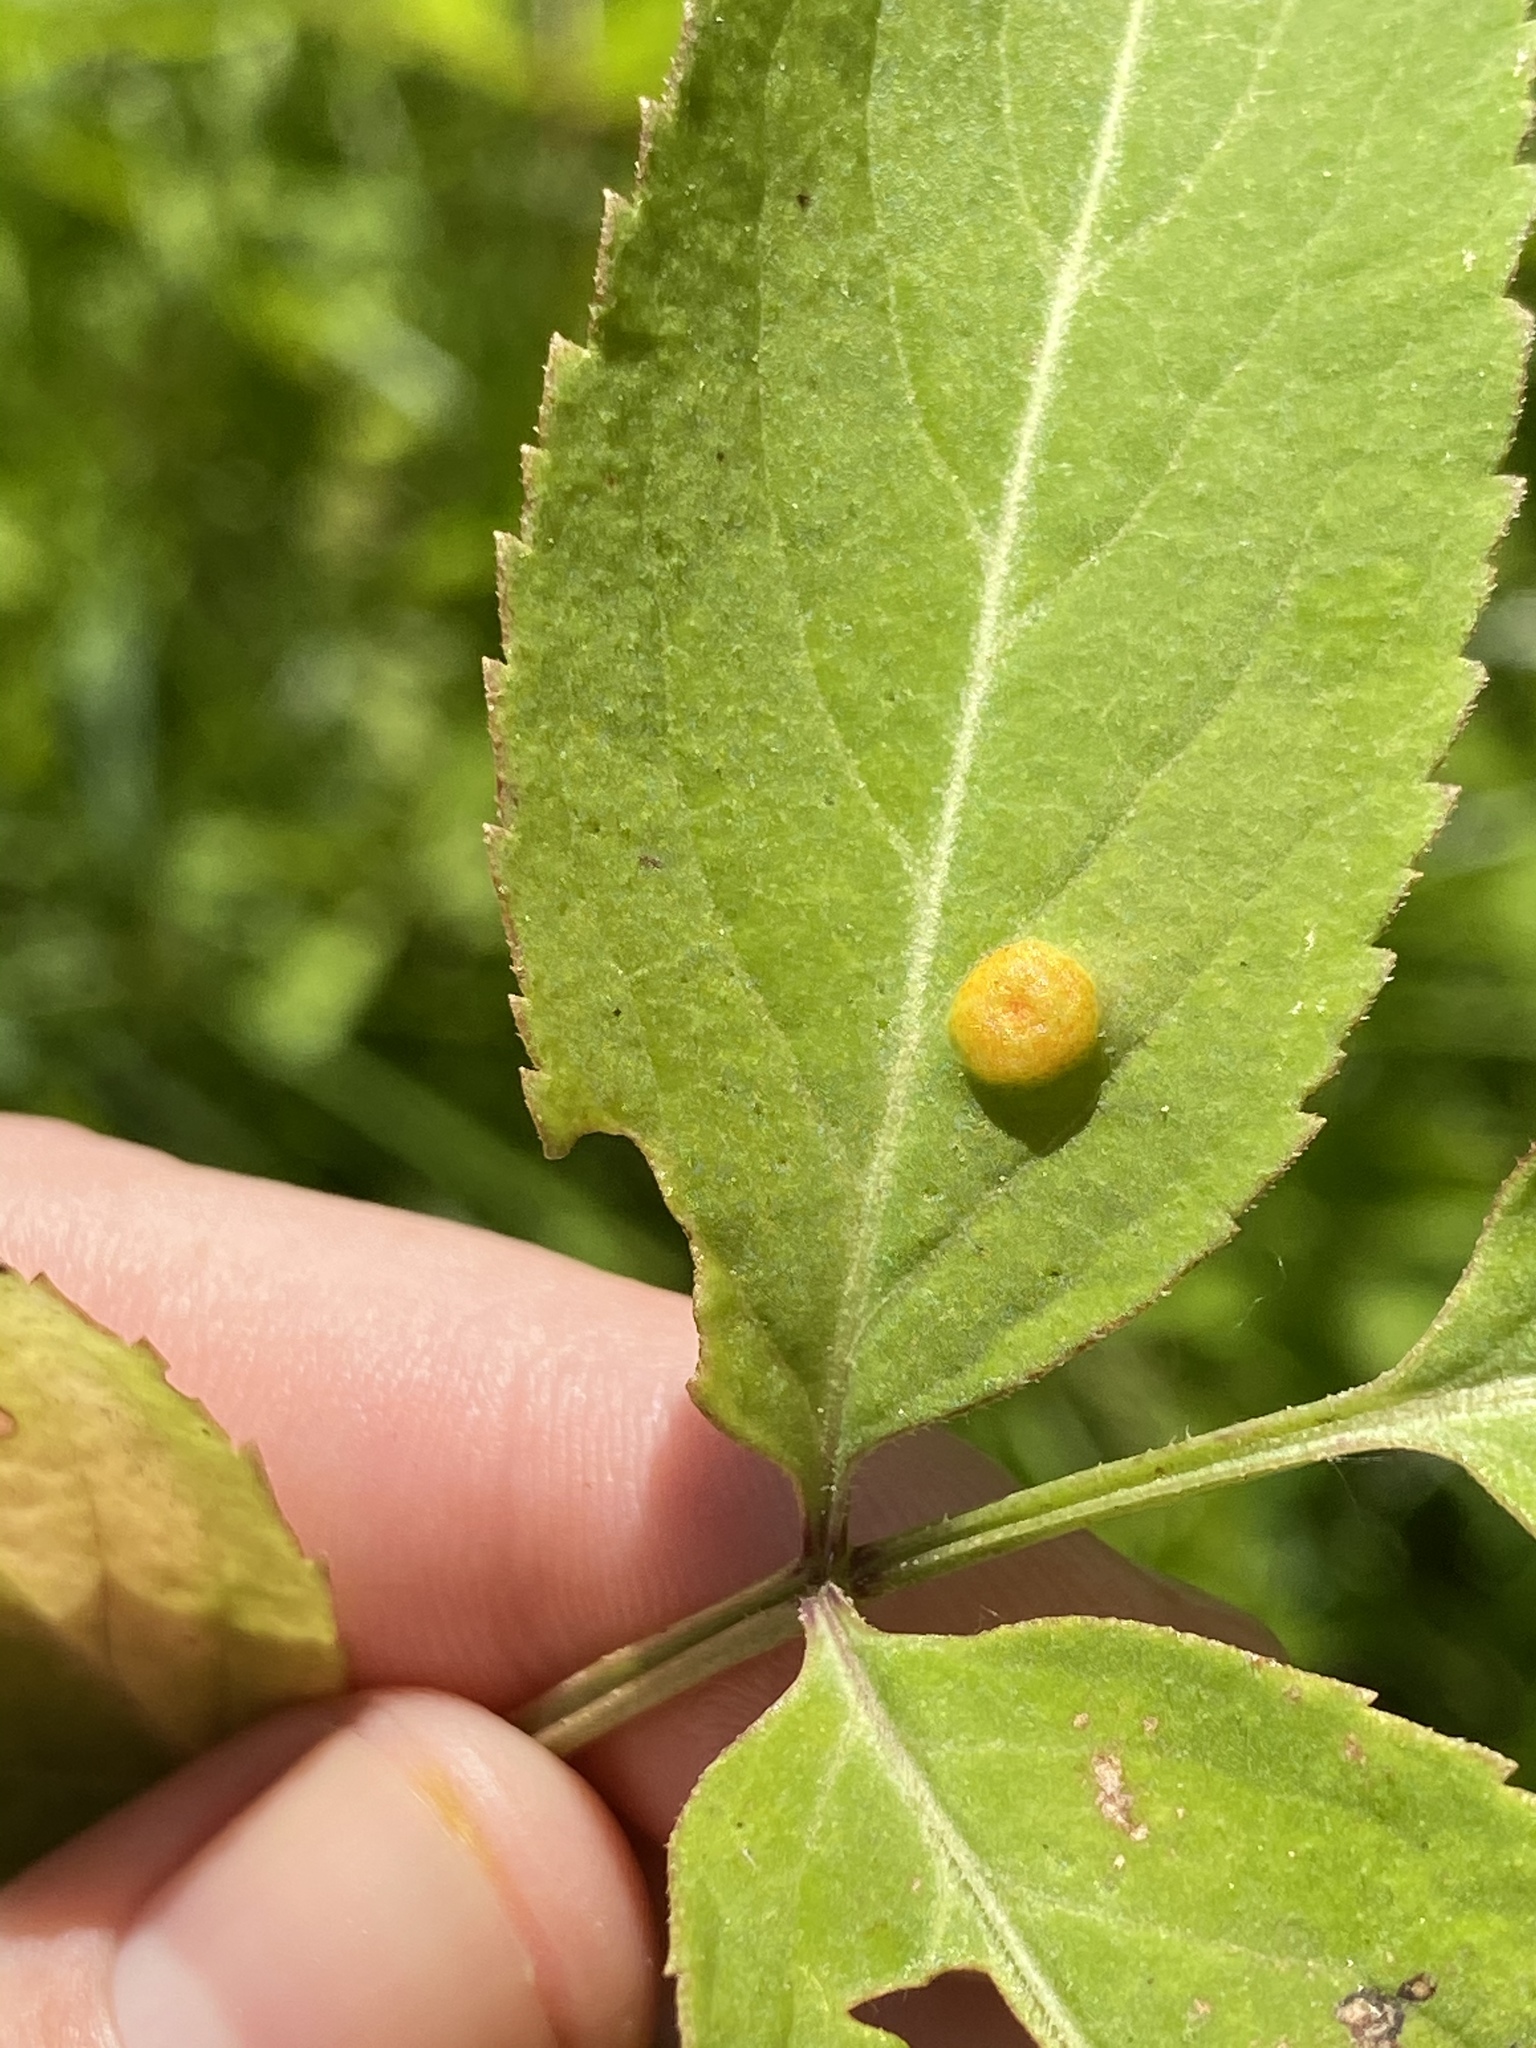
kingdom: Fungi
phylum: Basidiomycota
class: Pucciniomycetes
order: Pucciniales
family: Pucciniaceae
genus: Puccinia
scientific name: Puccinia
